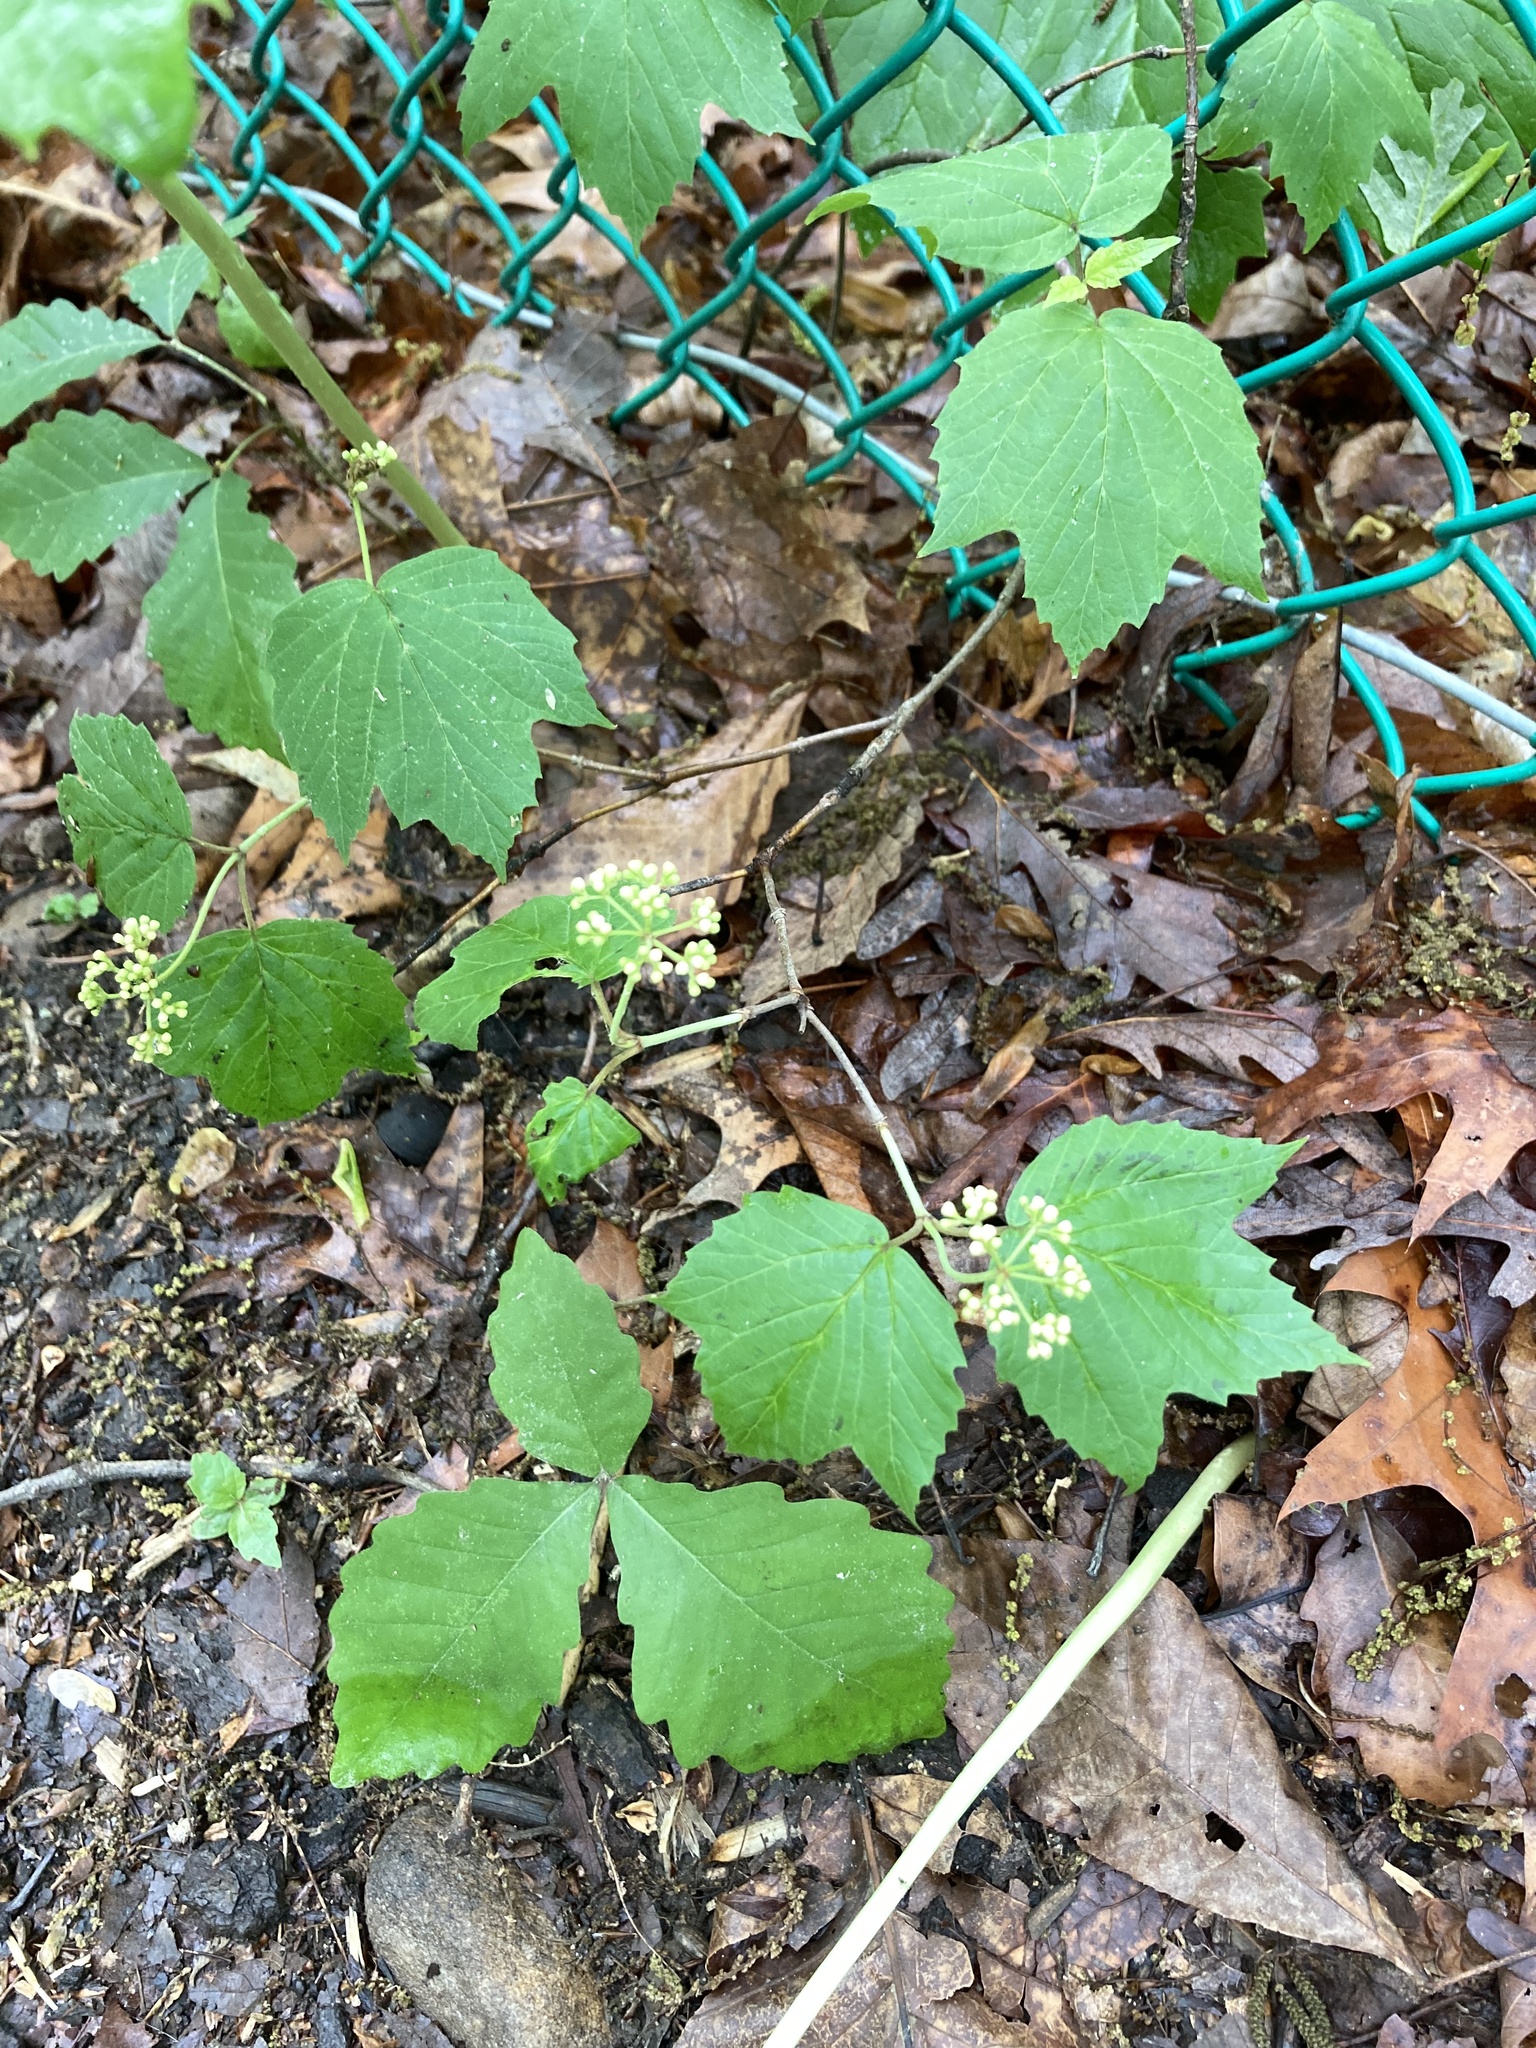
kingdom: Plantae
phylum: Tracheophyta
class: Magnoliopsida
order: Dipsacales
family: Viburnaceae
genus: Viburnum
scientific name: Viburnum acerifolium
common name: Dockmackie
